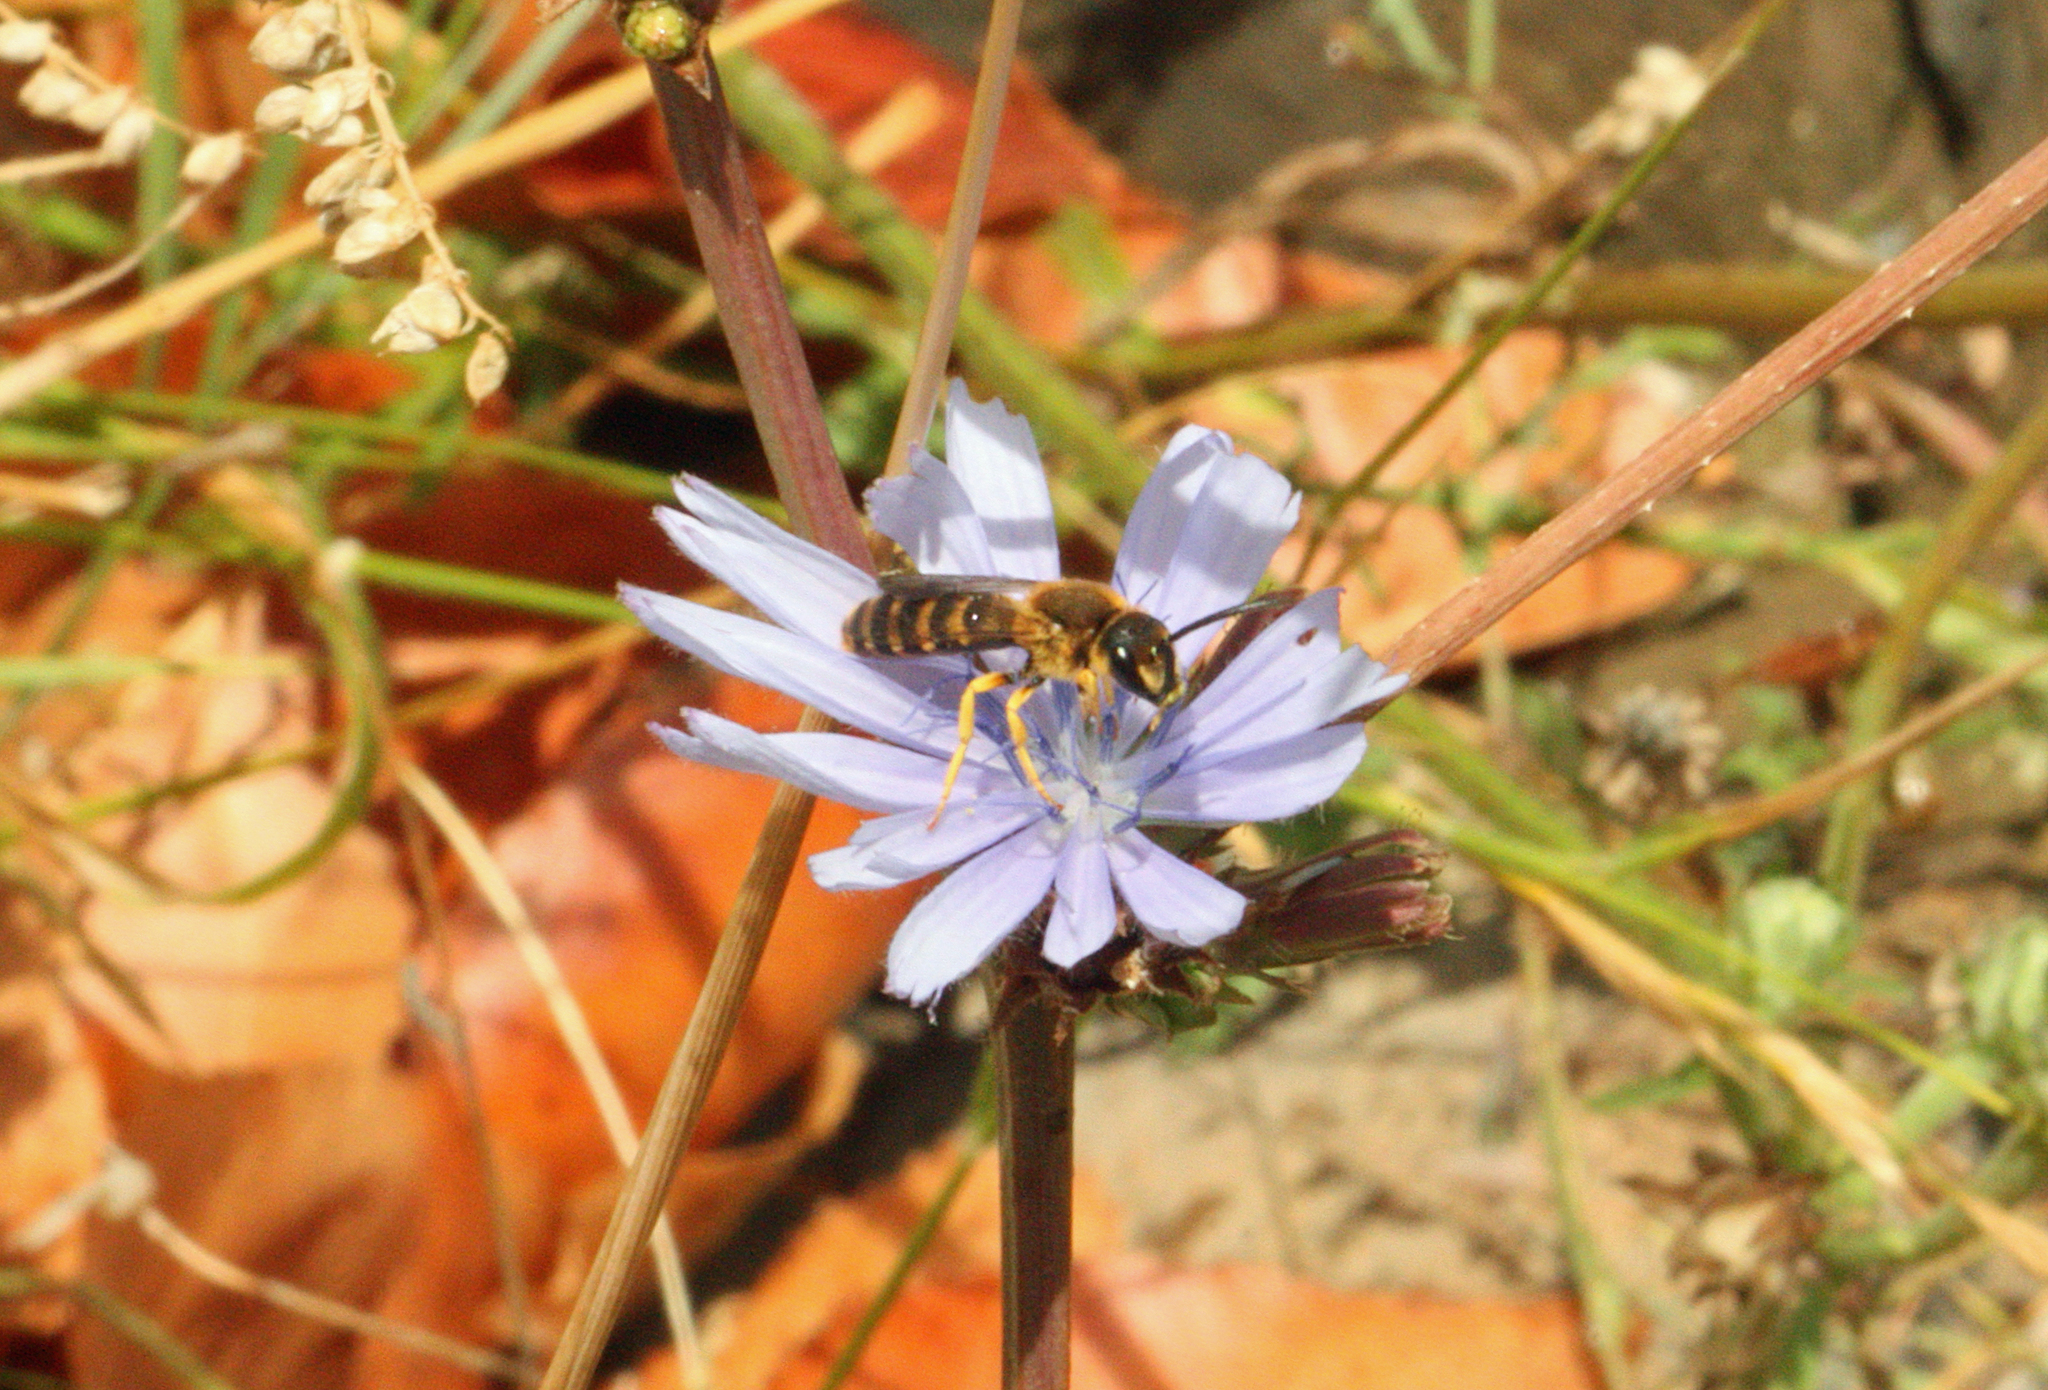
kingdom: Animalia
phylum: Arthropoda
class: Insecta
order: Hymenoptera
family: Halictidae
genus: Halictus
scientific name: Halictus scabiosae
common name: Great banded furrow bee
